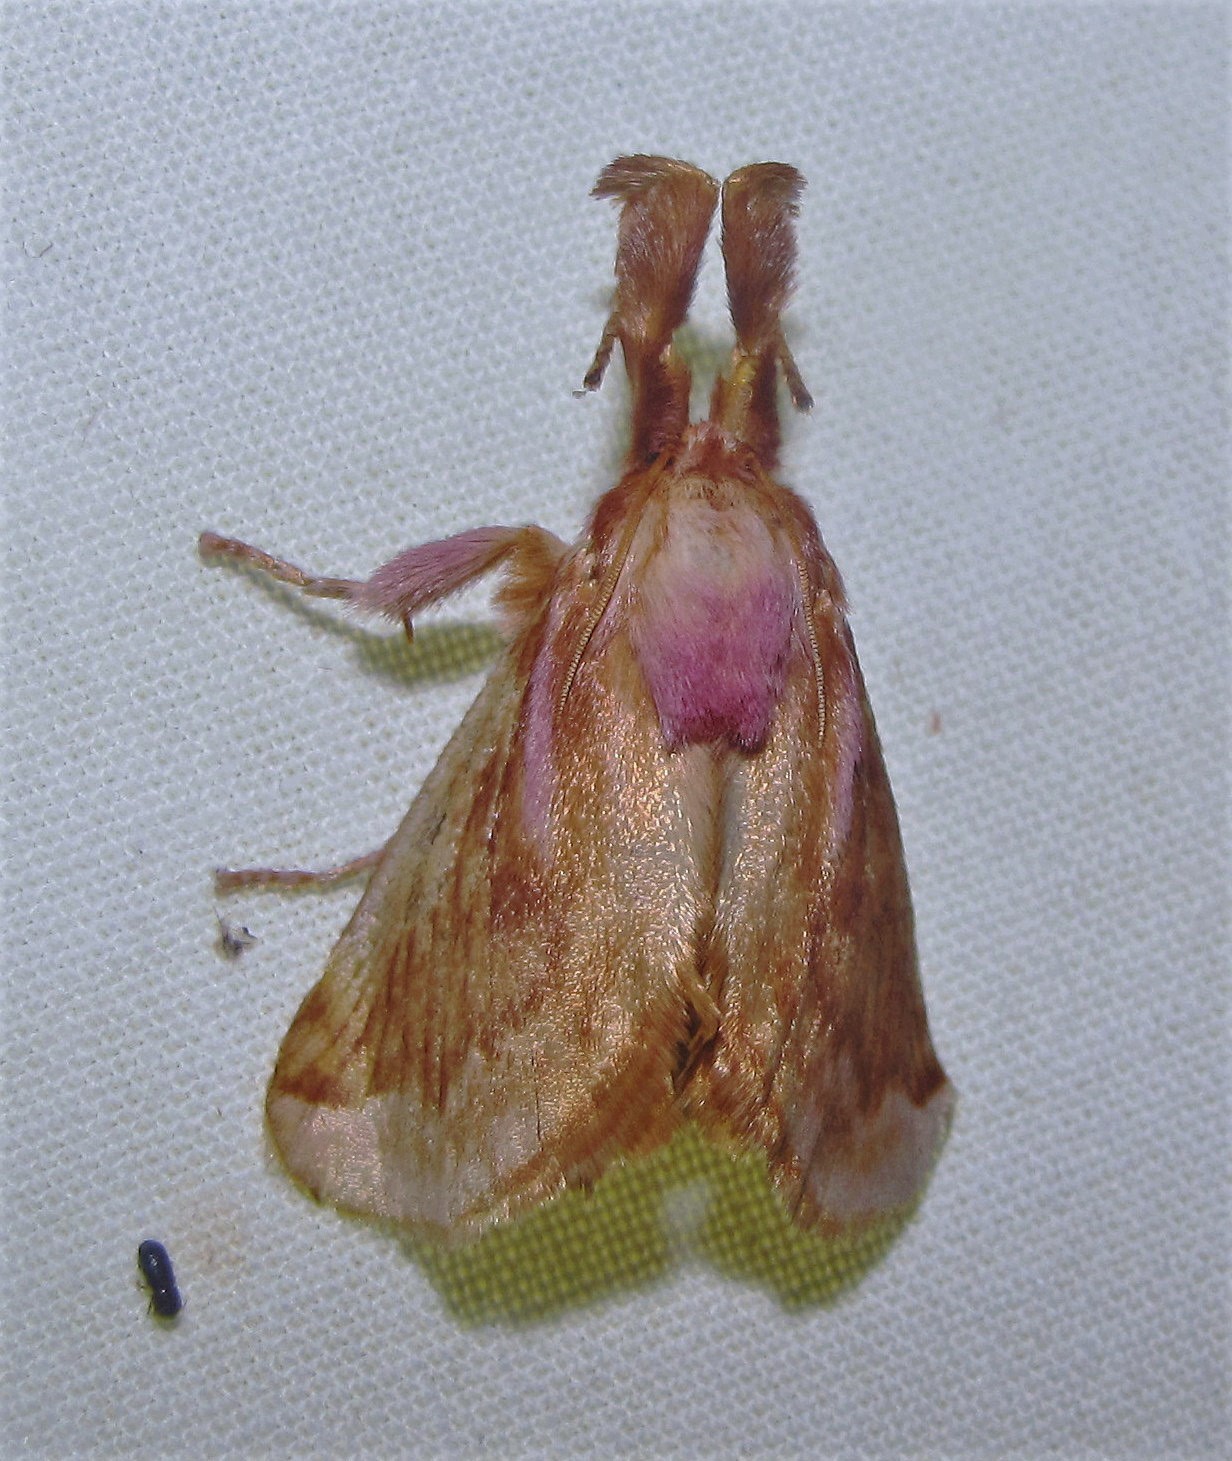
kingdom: Animalia
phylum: Arthropoda
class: Insecta
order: Lepidoptera
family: Limacodidae
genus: Perola
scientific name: Perola villosipes
